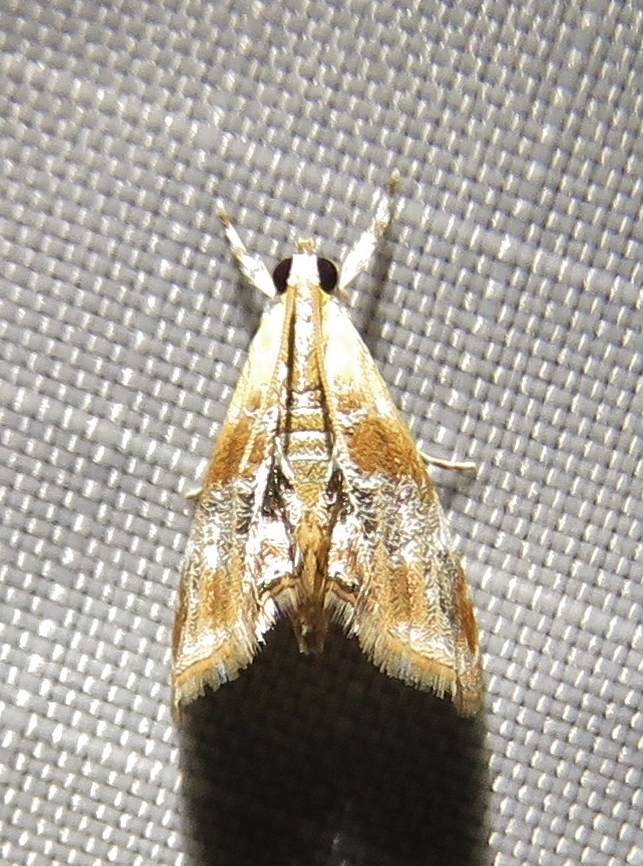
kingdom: Animalia
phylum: Arthropoda
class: Insecta
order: Lepidoptera
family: Crambidae
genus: Dicymolomia
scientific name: Dicymolomia julianalis
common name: Julia's dicymolomia moth
